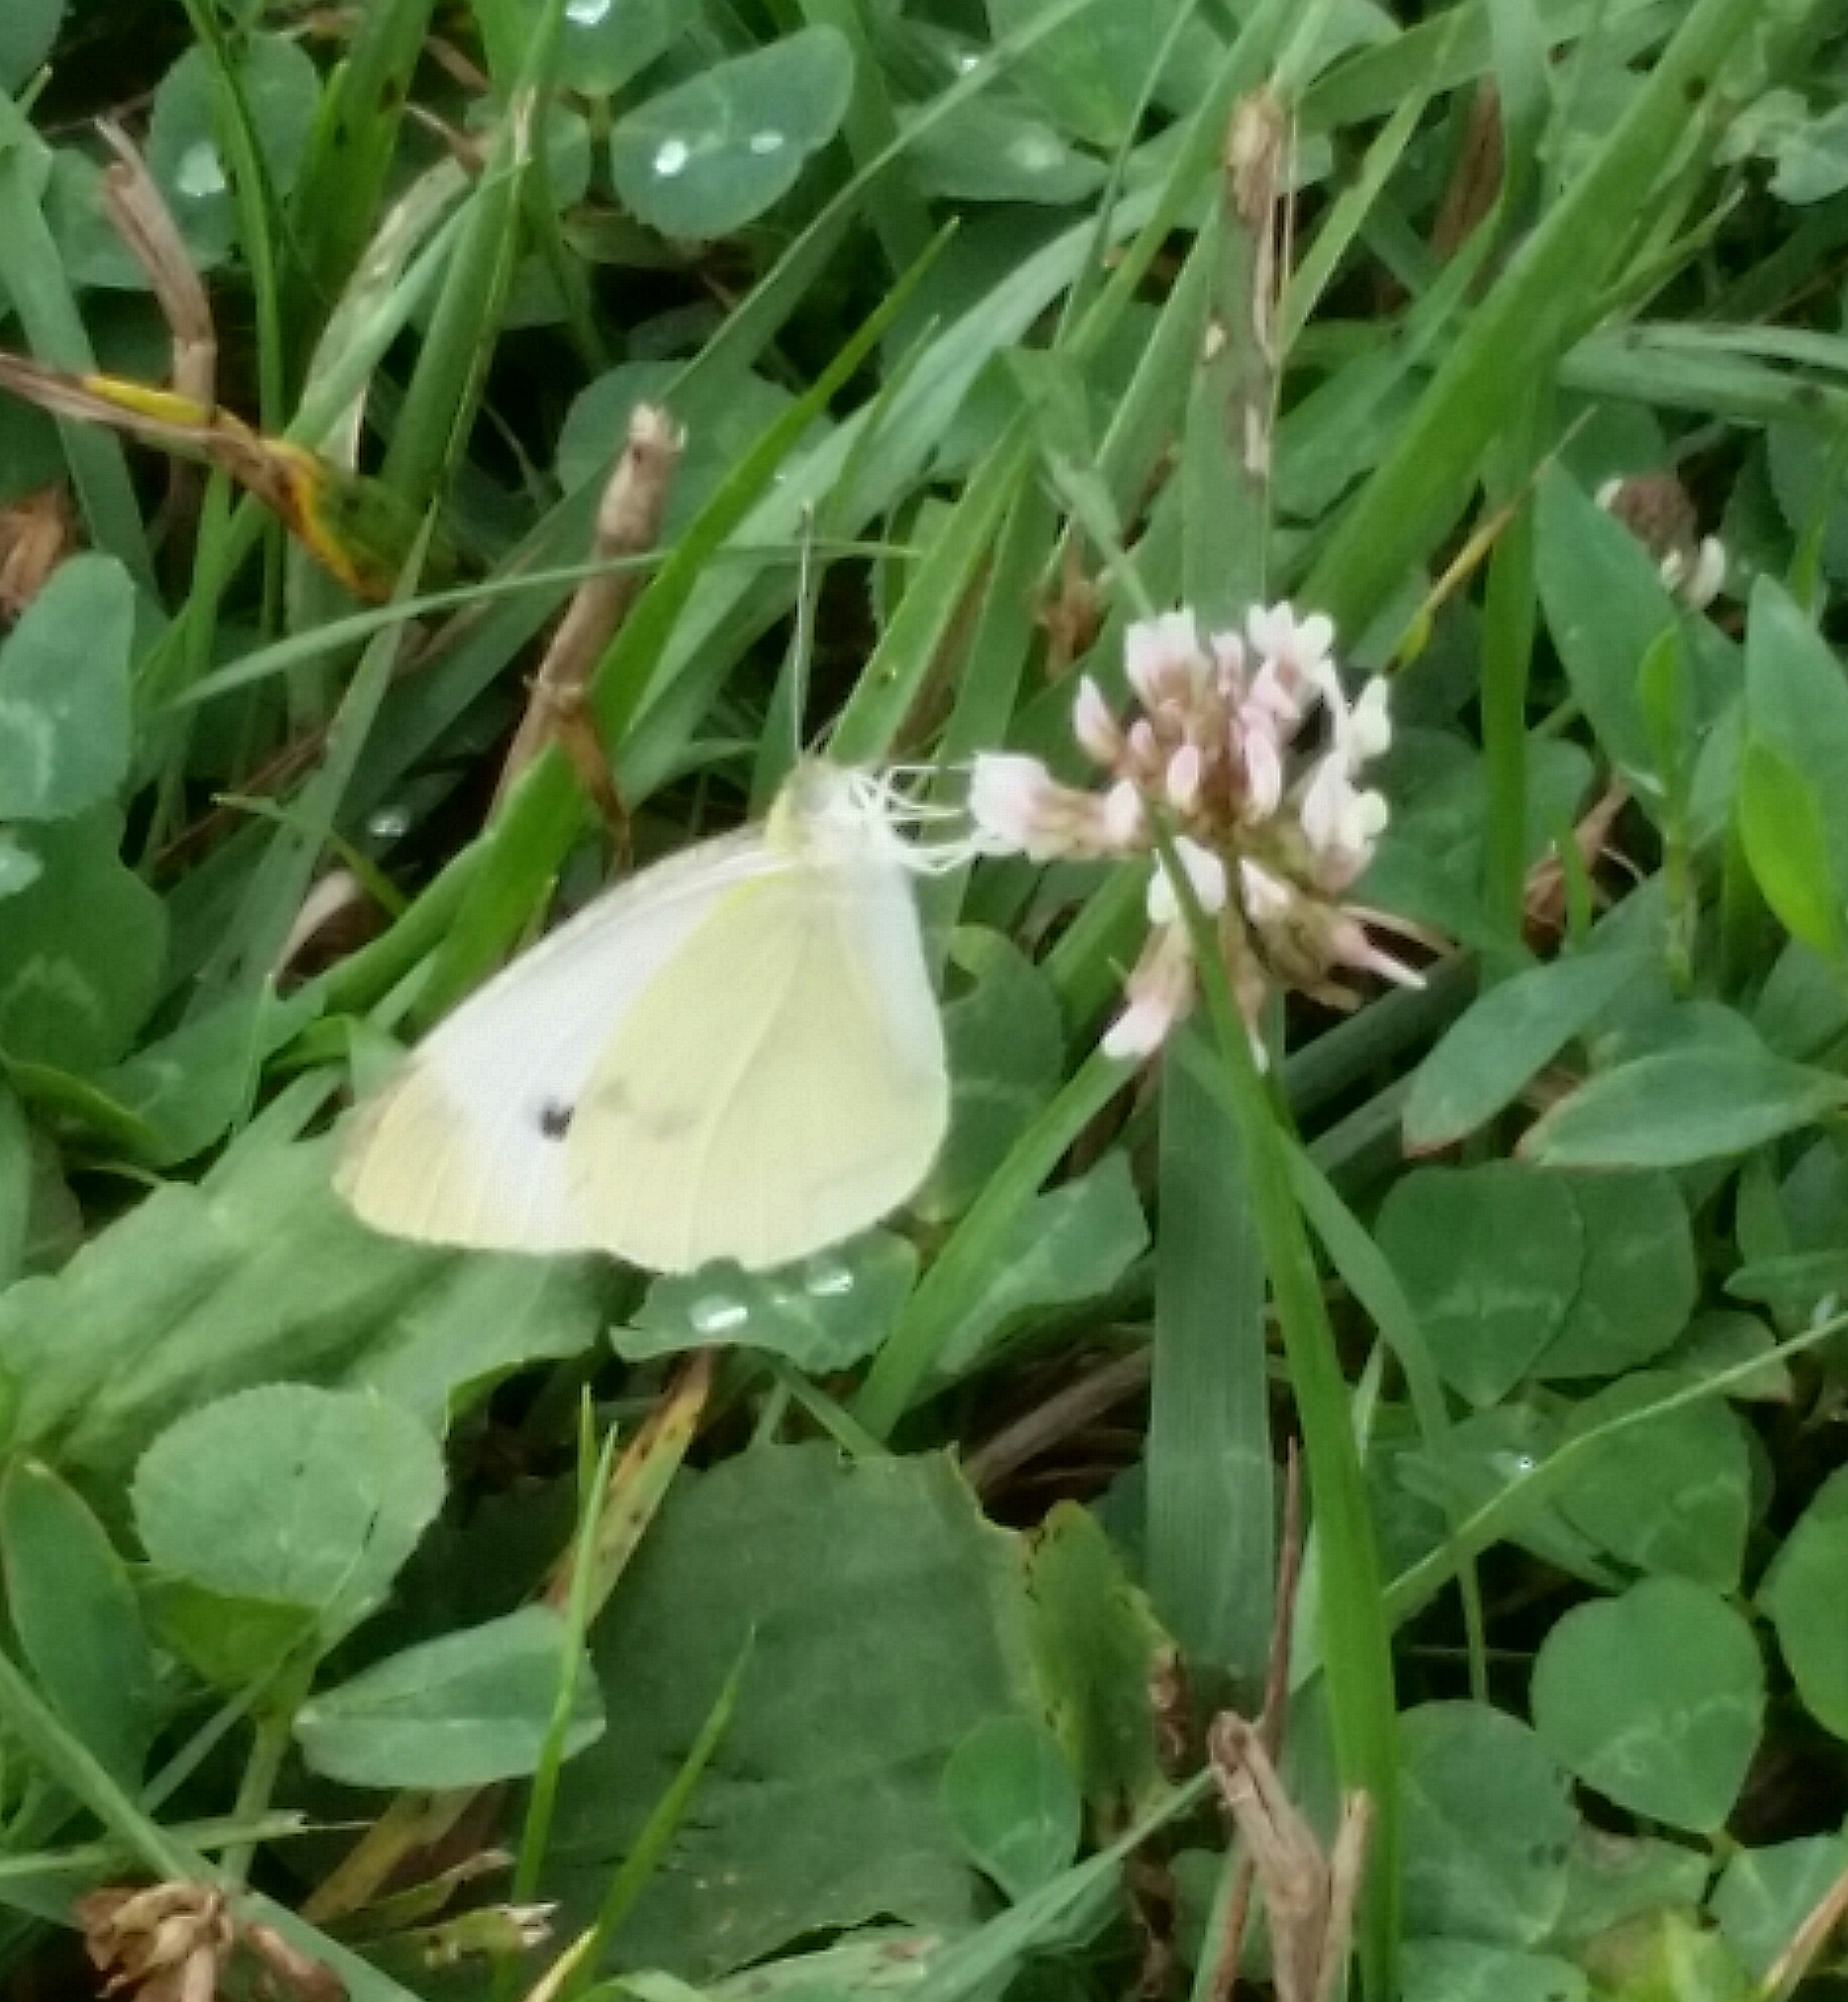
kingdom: Animalia
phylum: Arthropoda
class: Insecta
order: Lepidoptera
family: Pieridae
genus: Pieris
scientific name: Pieris rapae
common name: Small white
